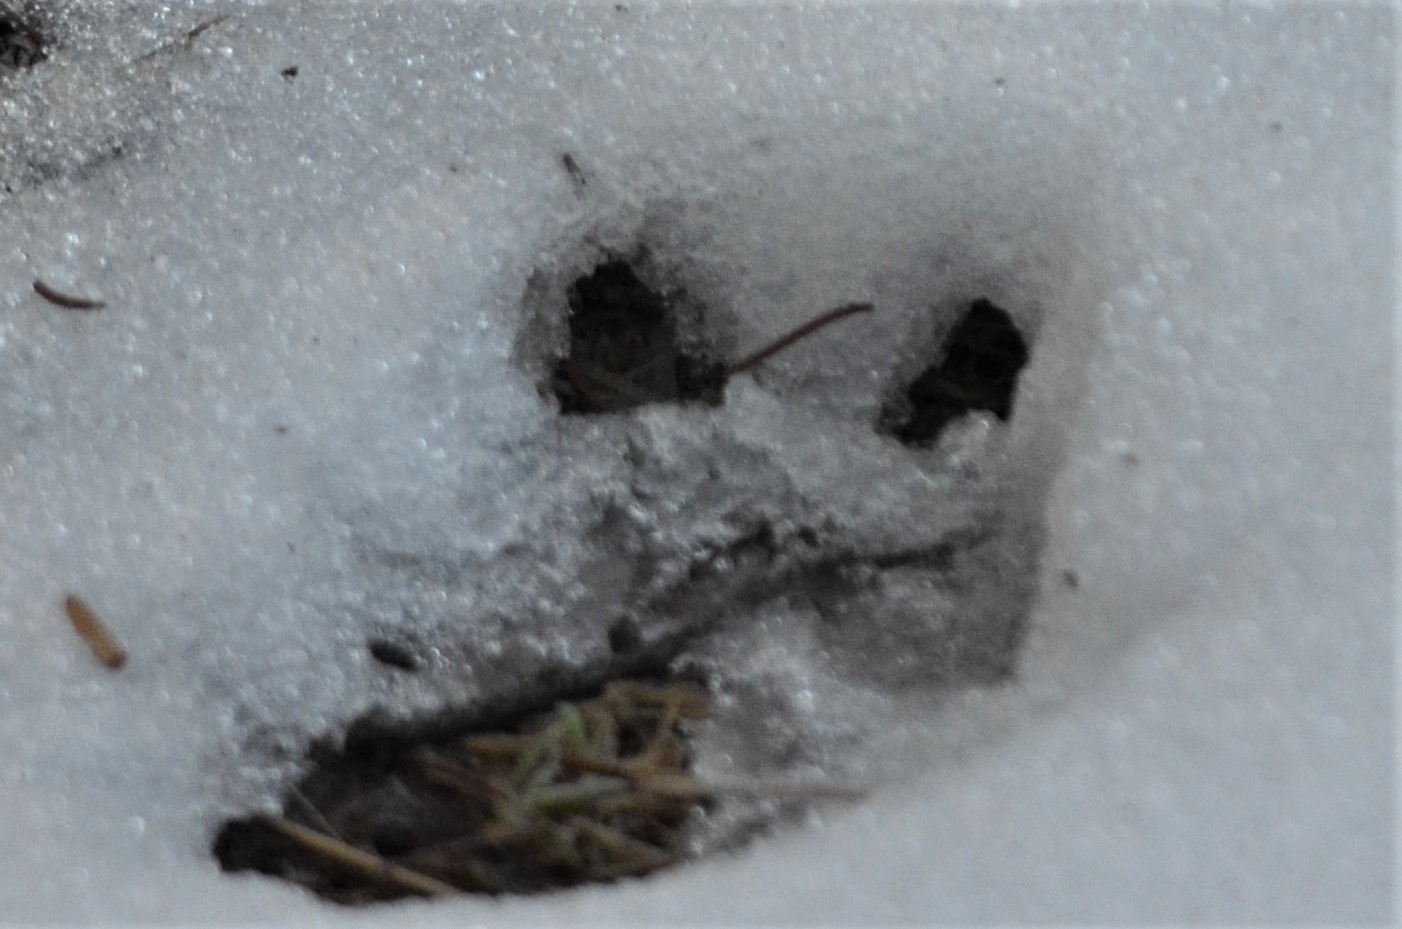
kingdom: Animalia
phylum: Chordata
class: Mammalia
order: Artiodactyla
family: Cervidae
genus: Capreolus
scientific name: Capreolus capreolus
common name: Western roe deer
